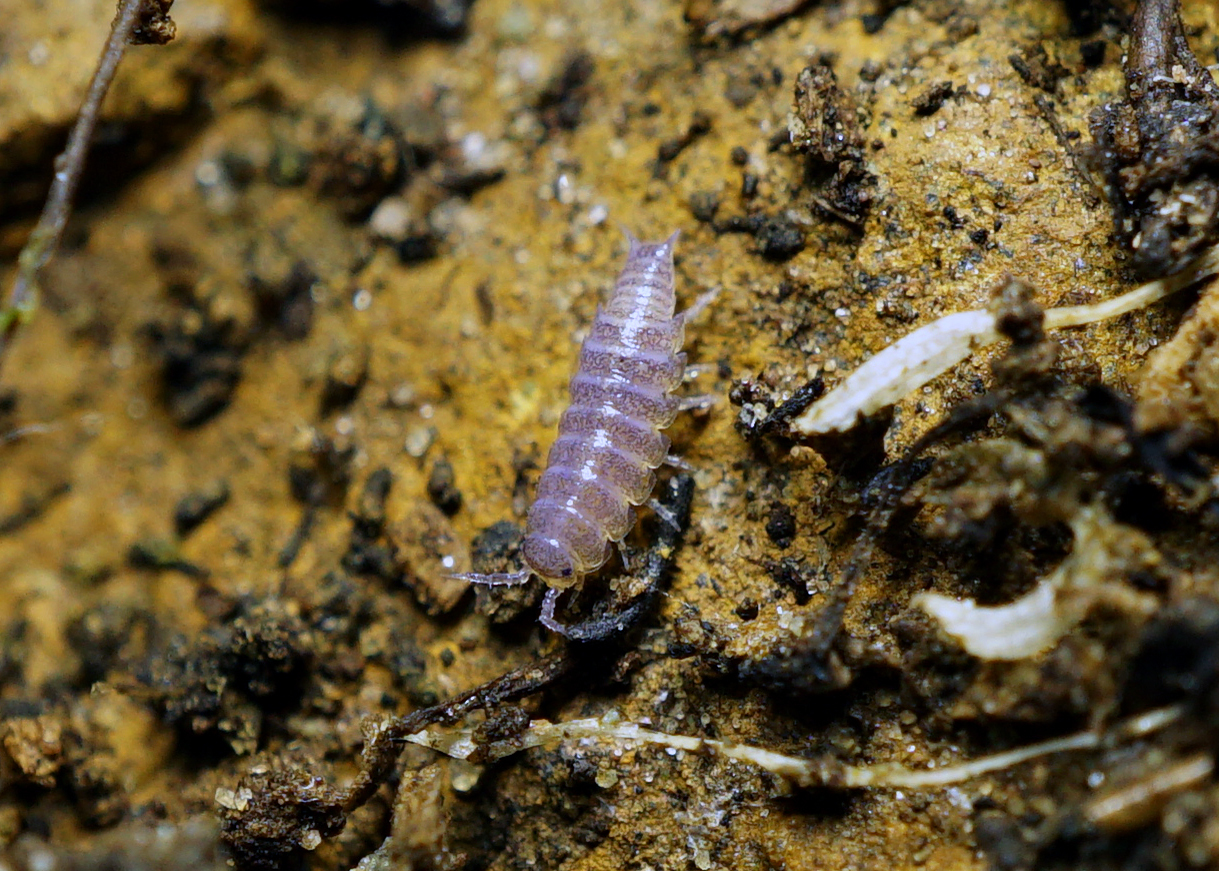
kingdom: Animalia
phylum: Arthropoda
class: Malacostraca
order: Isopoda
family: Trichoniscidae
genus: Trichoniscus
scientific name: Trichoniscus
